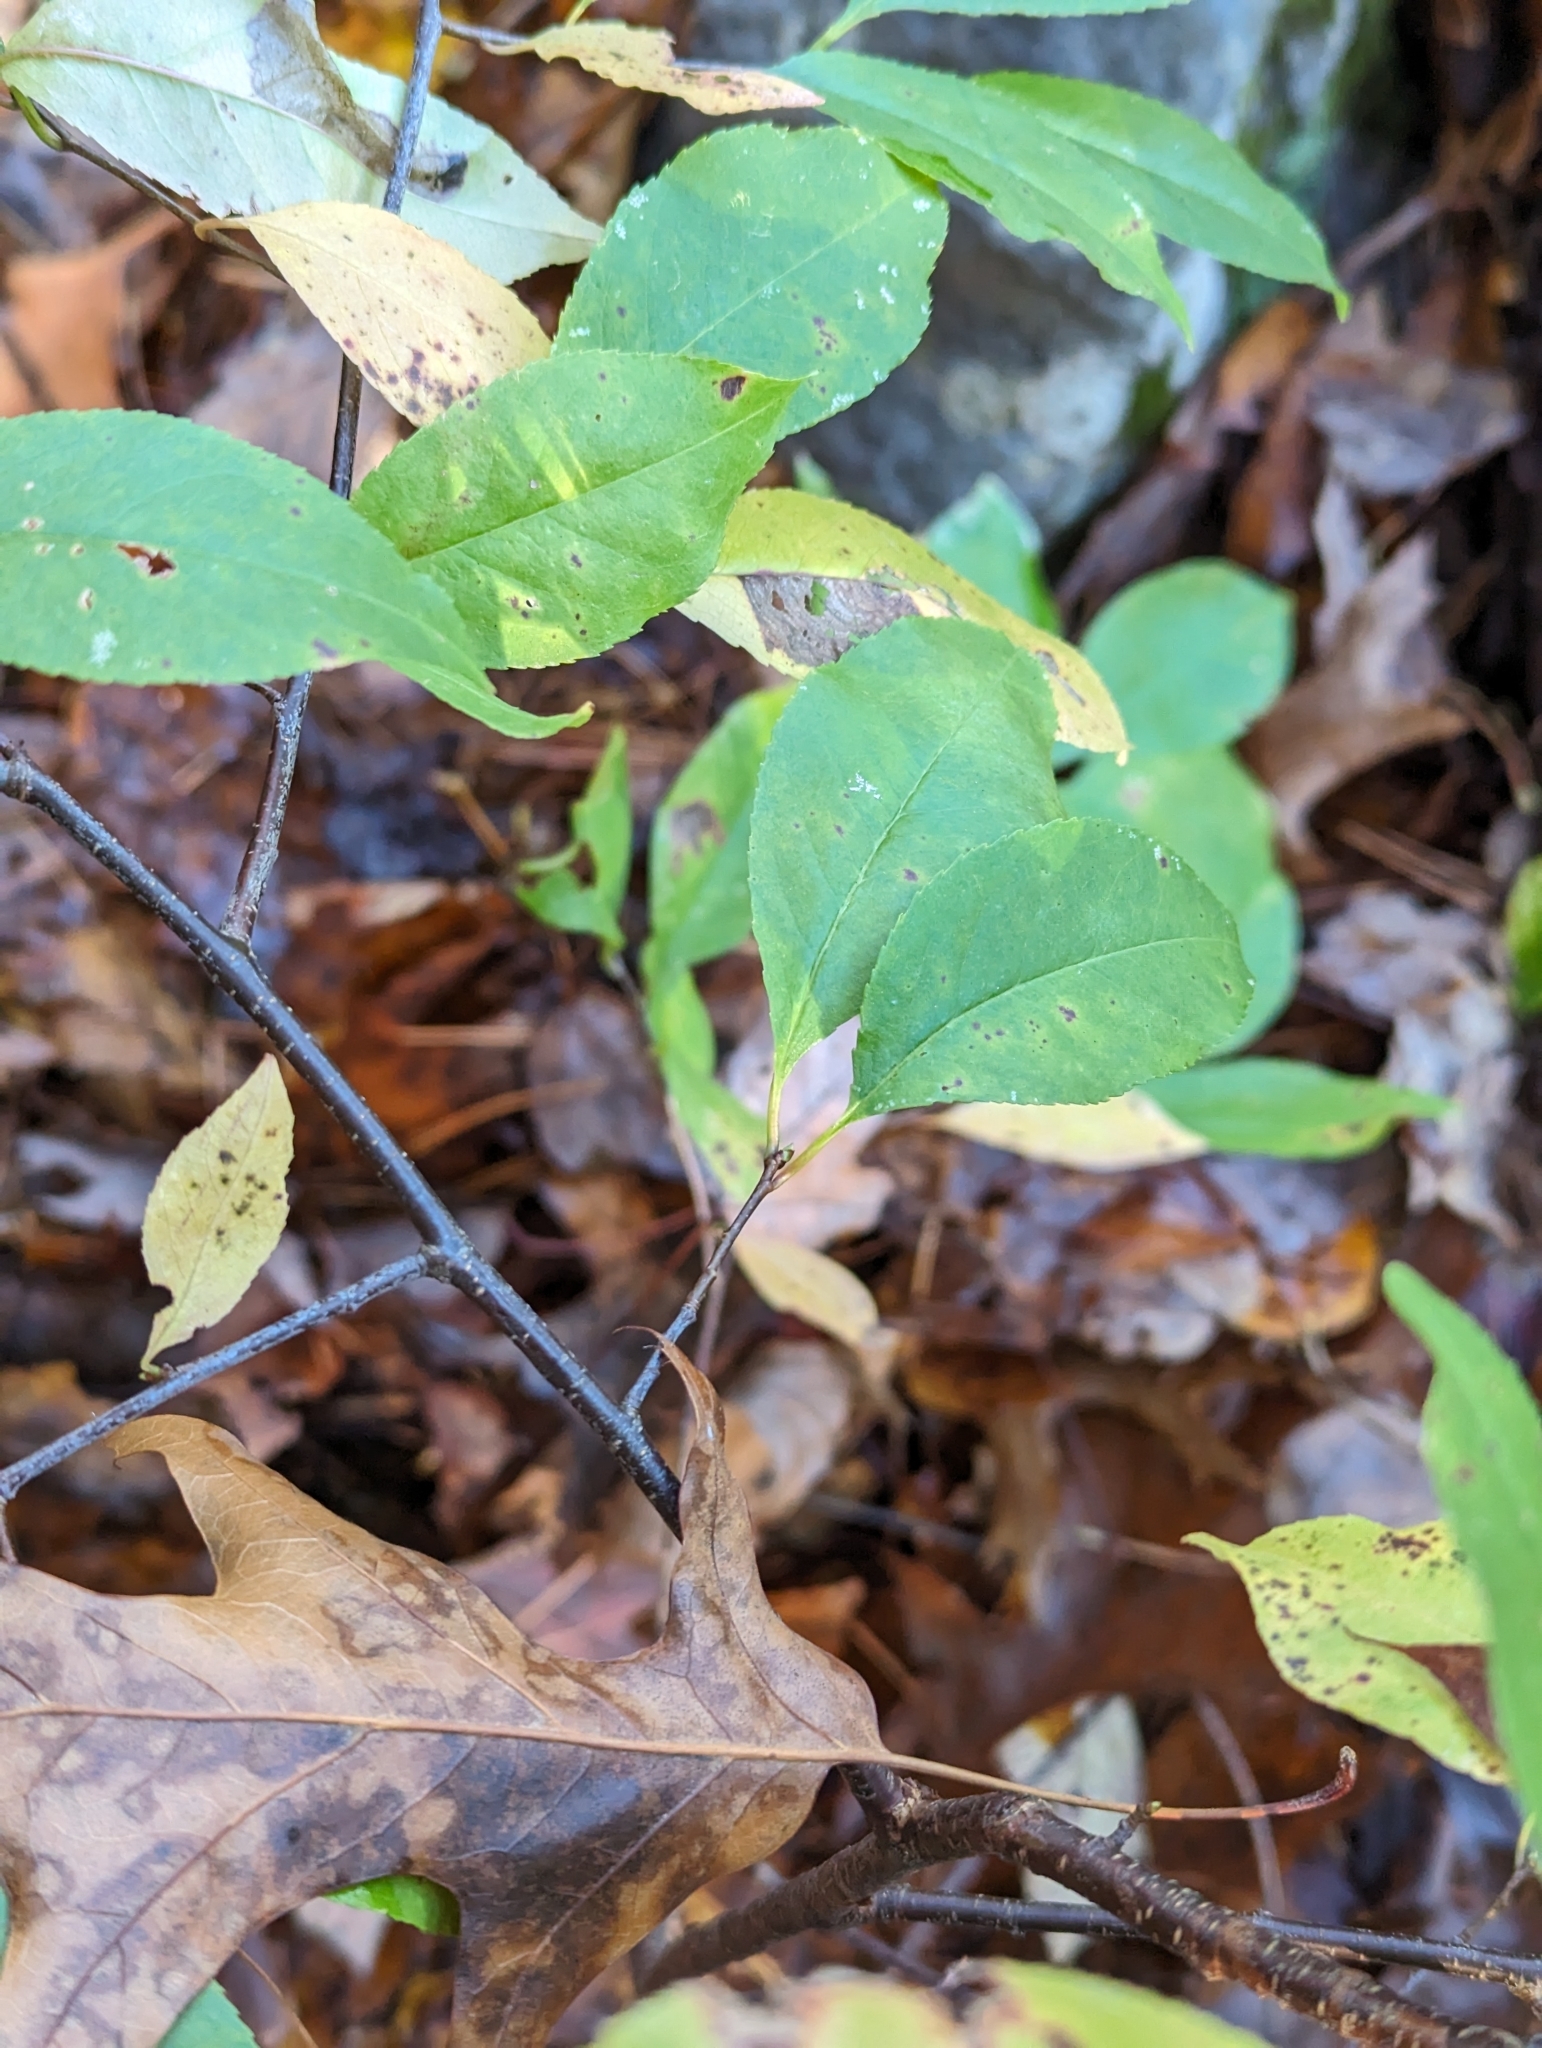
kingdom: Plantae
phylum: Tracheophyta
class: Magnoliopsida
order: Rosales
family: Rosaceae
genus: Prunus
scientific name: Prunus serotina
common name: Black cherry
